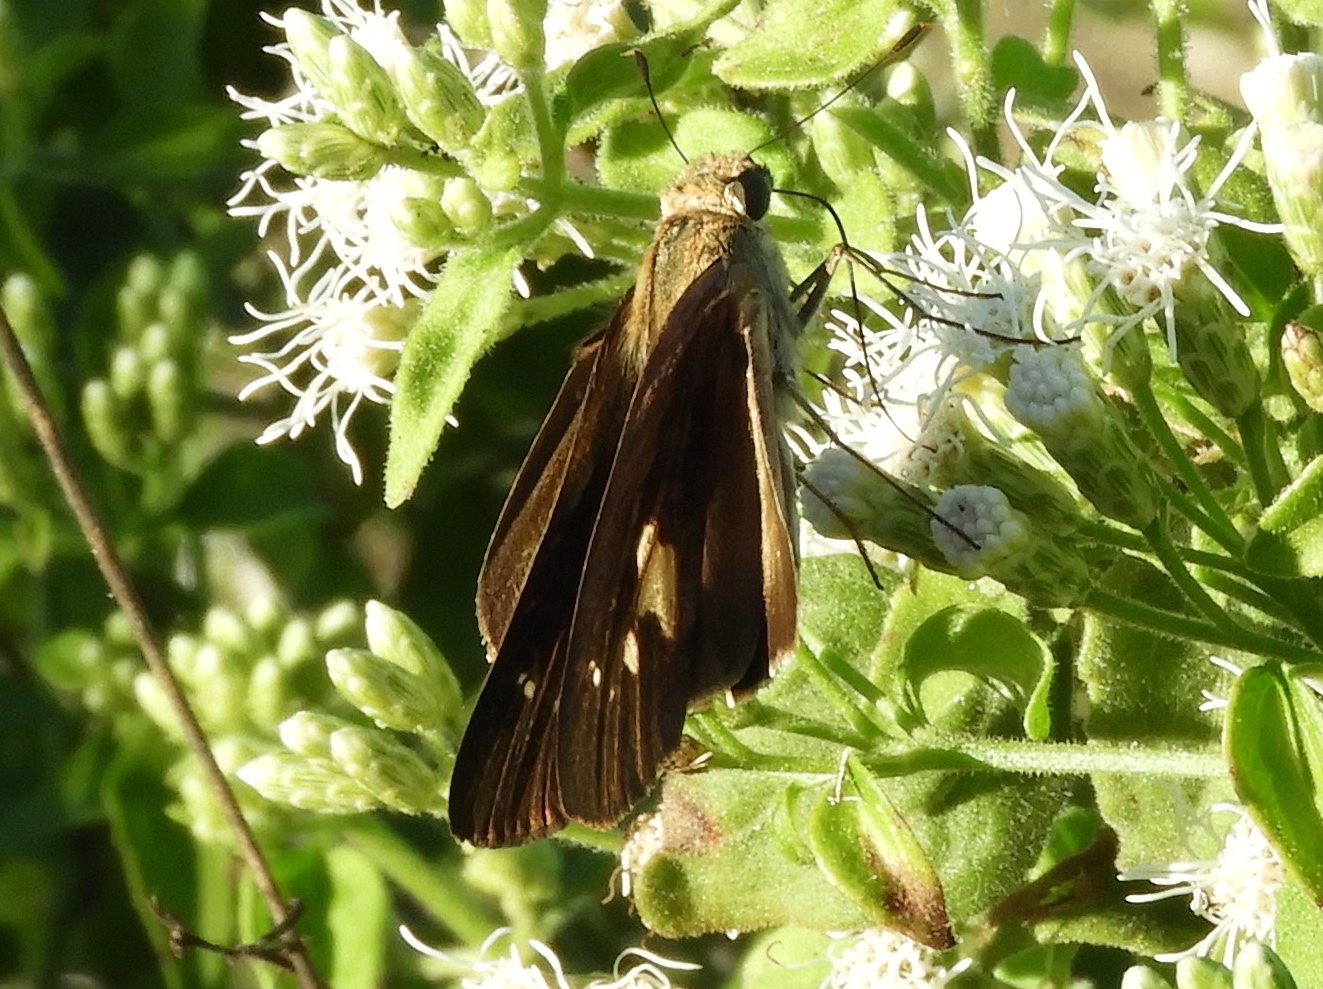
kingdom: Animalia
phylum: Arthropoda
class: Insecta
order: Lepidoptera
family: Hesperiidae
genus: Panoquina
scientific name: Panoquina
